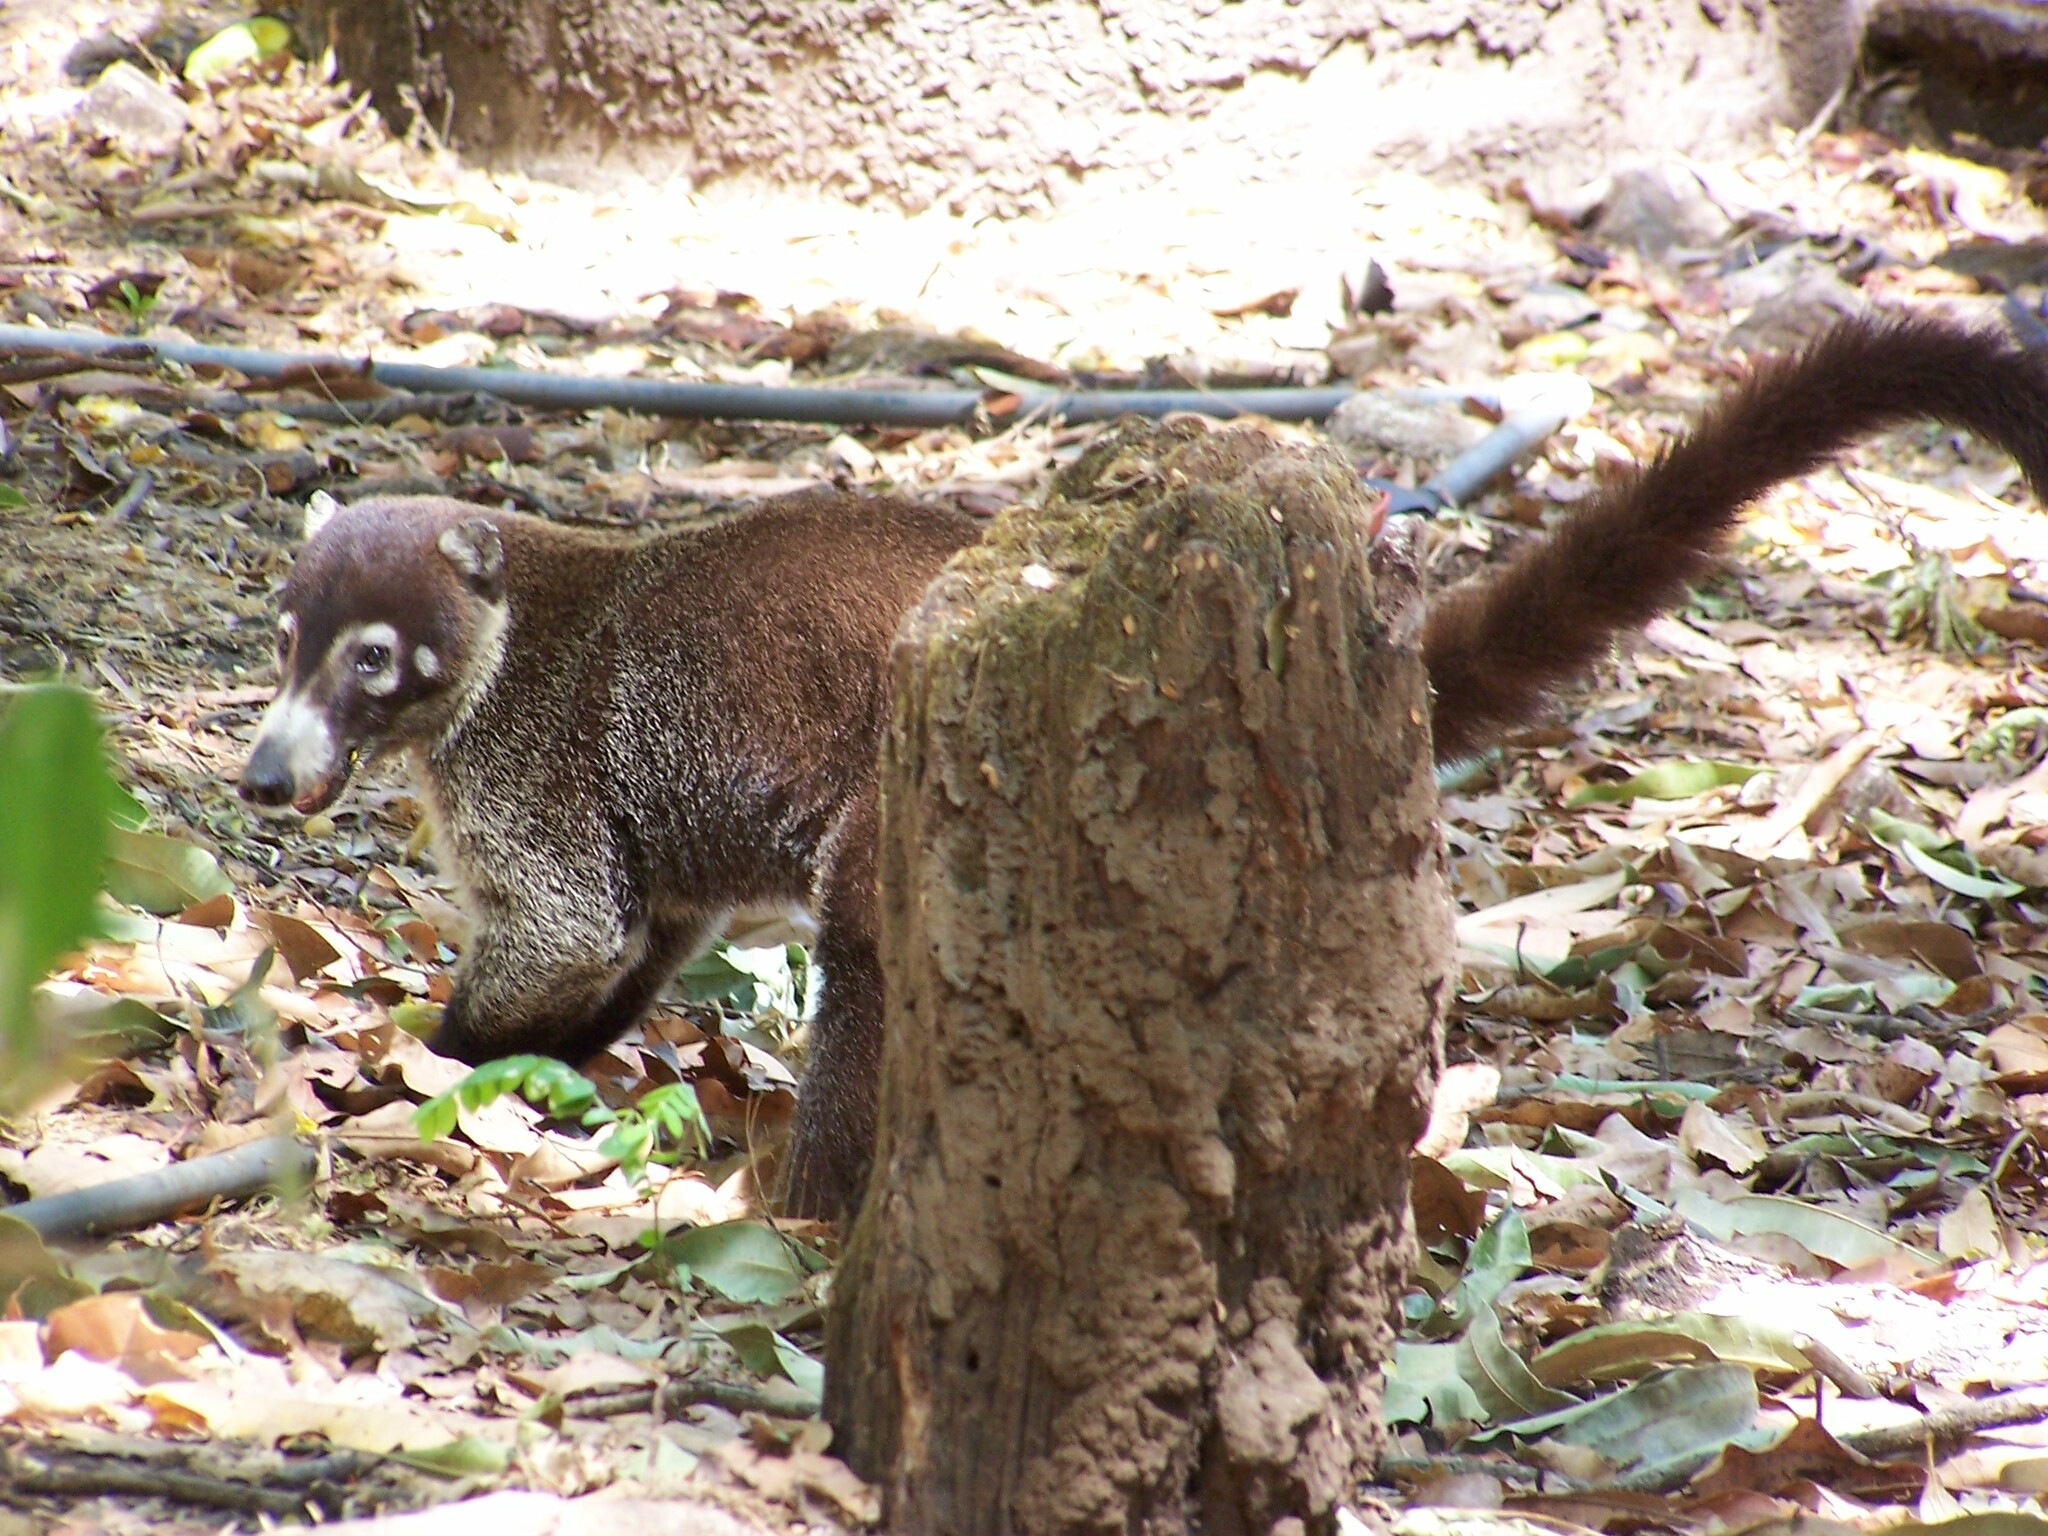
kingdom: Animalia
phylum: Chordata
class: Mammalia
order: Carnivora
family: Procyonidae
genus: Nasua
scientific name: Nasua narica
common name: White-nosed coati
